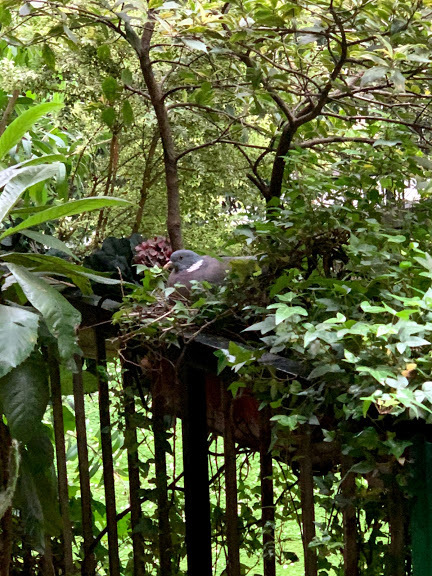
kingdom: Animalia
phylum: Chordata
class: Aves
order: Columbiformes
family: Columbidae
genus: Columba
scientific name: Columba palumbus
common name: Common wood pigeon
